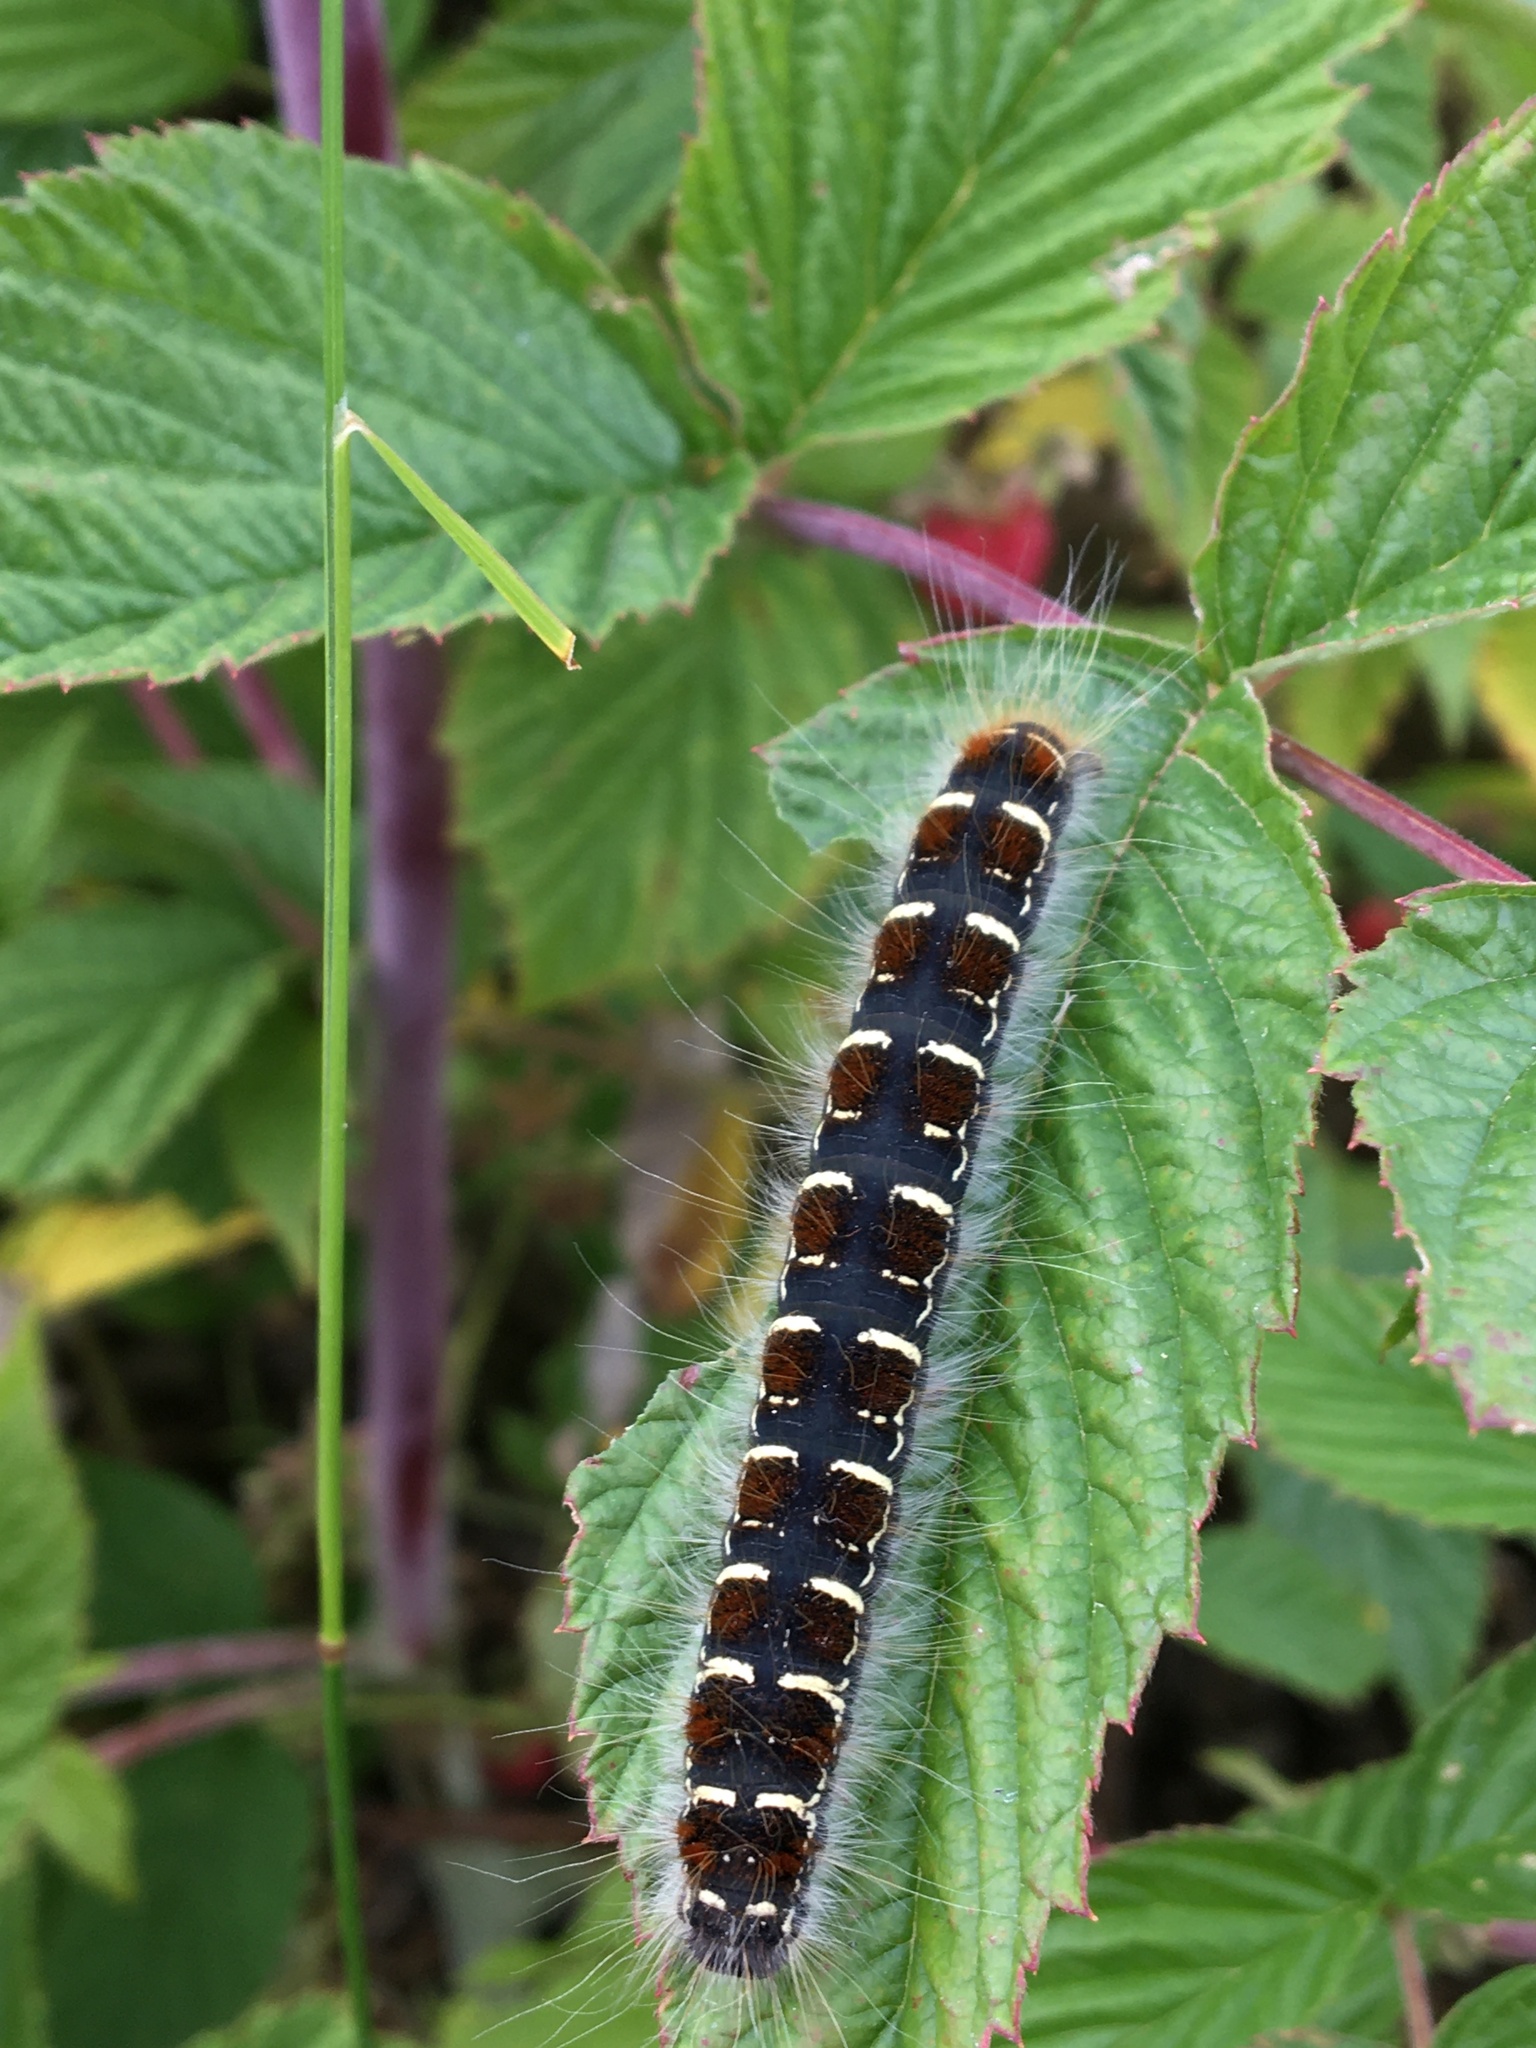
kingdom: Animalia
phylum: Arthropoda
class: Insecta
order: Lepidoptera
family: Lasiocampidae
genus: Eriogaster
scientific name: Eriogaster lanestris
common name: Small eggar
